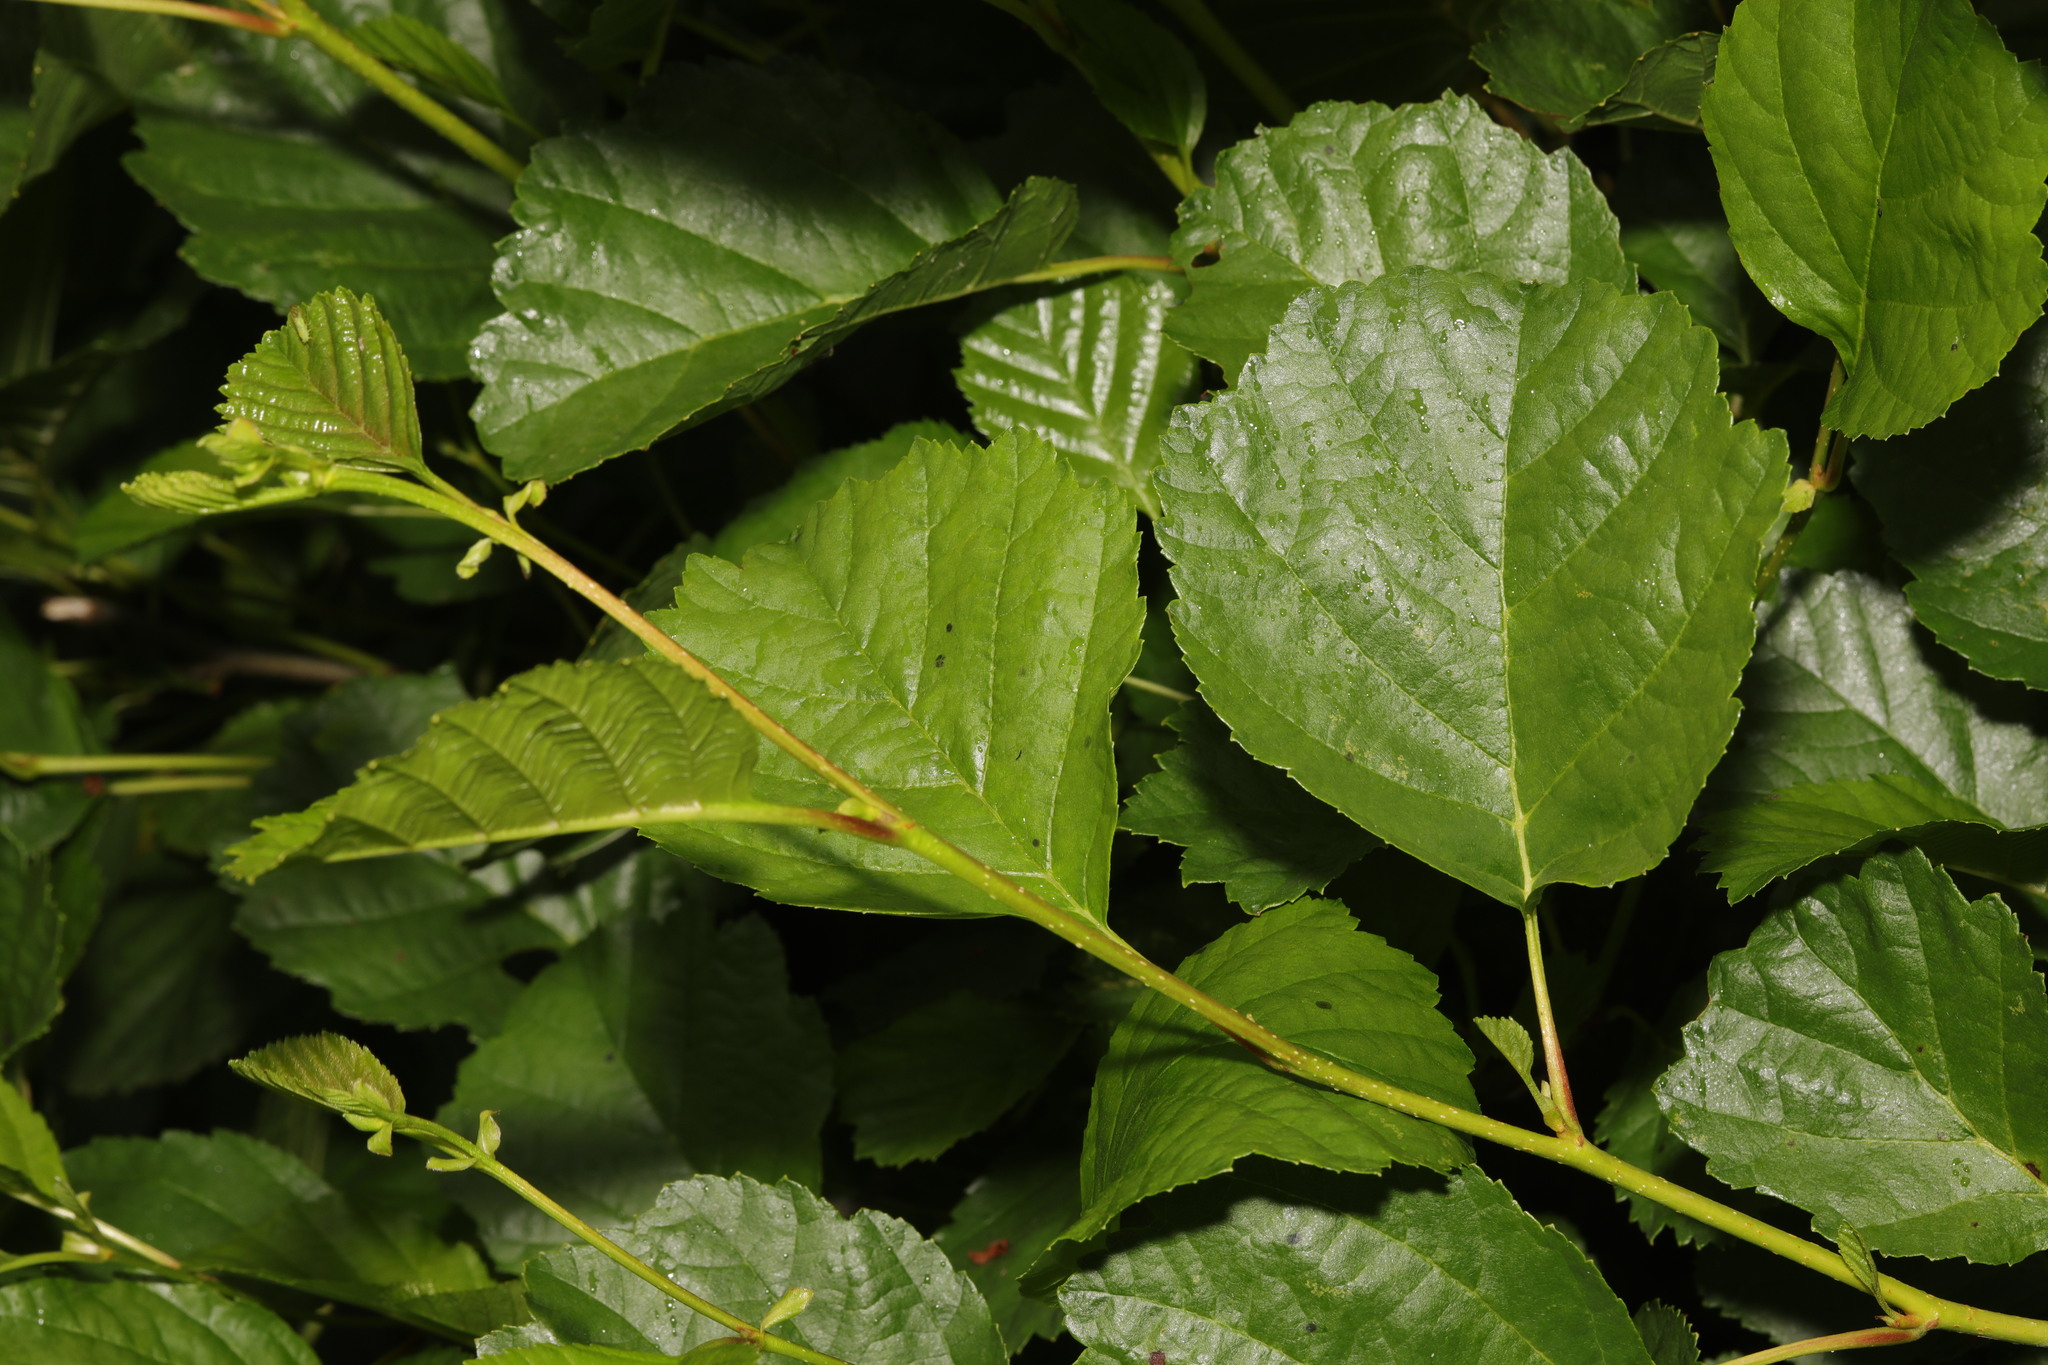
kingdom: Plantae
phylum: Tracheophyta
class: Magnoliopsida
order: Fagales
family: Betulaceae
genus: Alnus
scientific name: Alnus glutinosa
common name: Black alder
